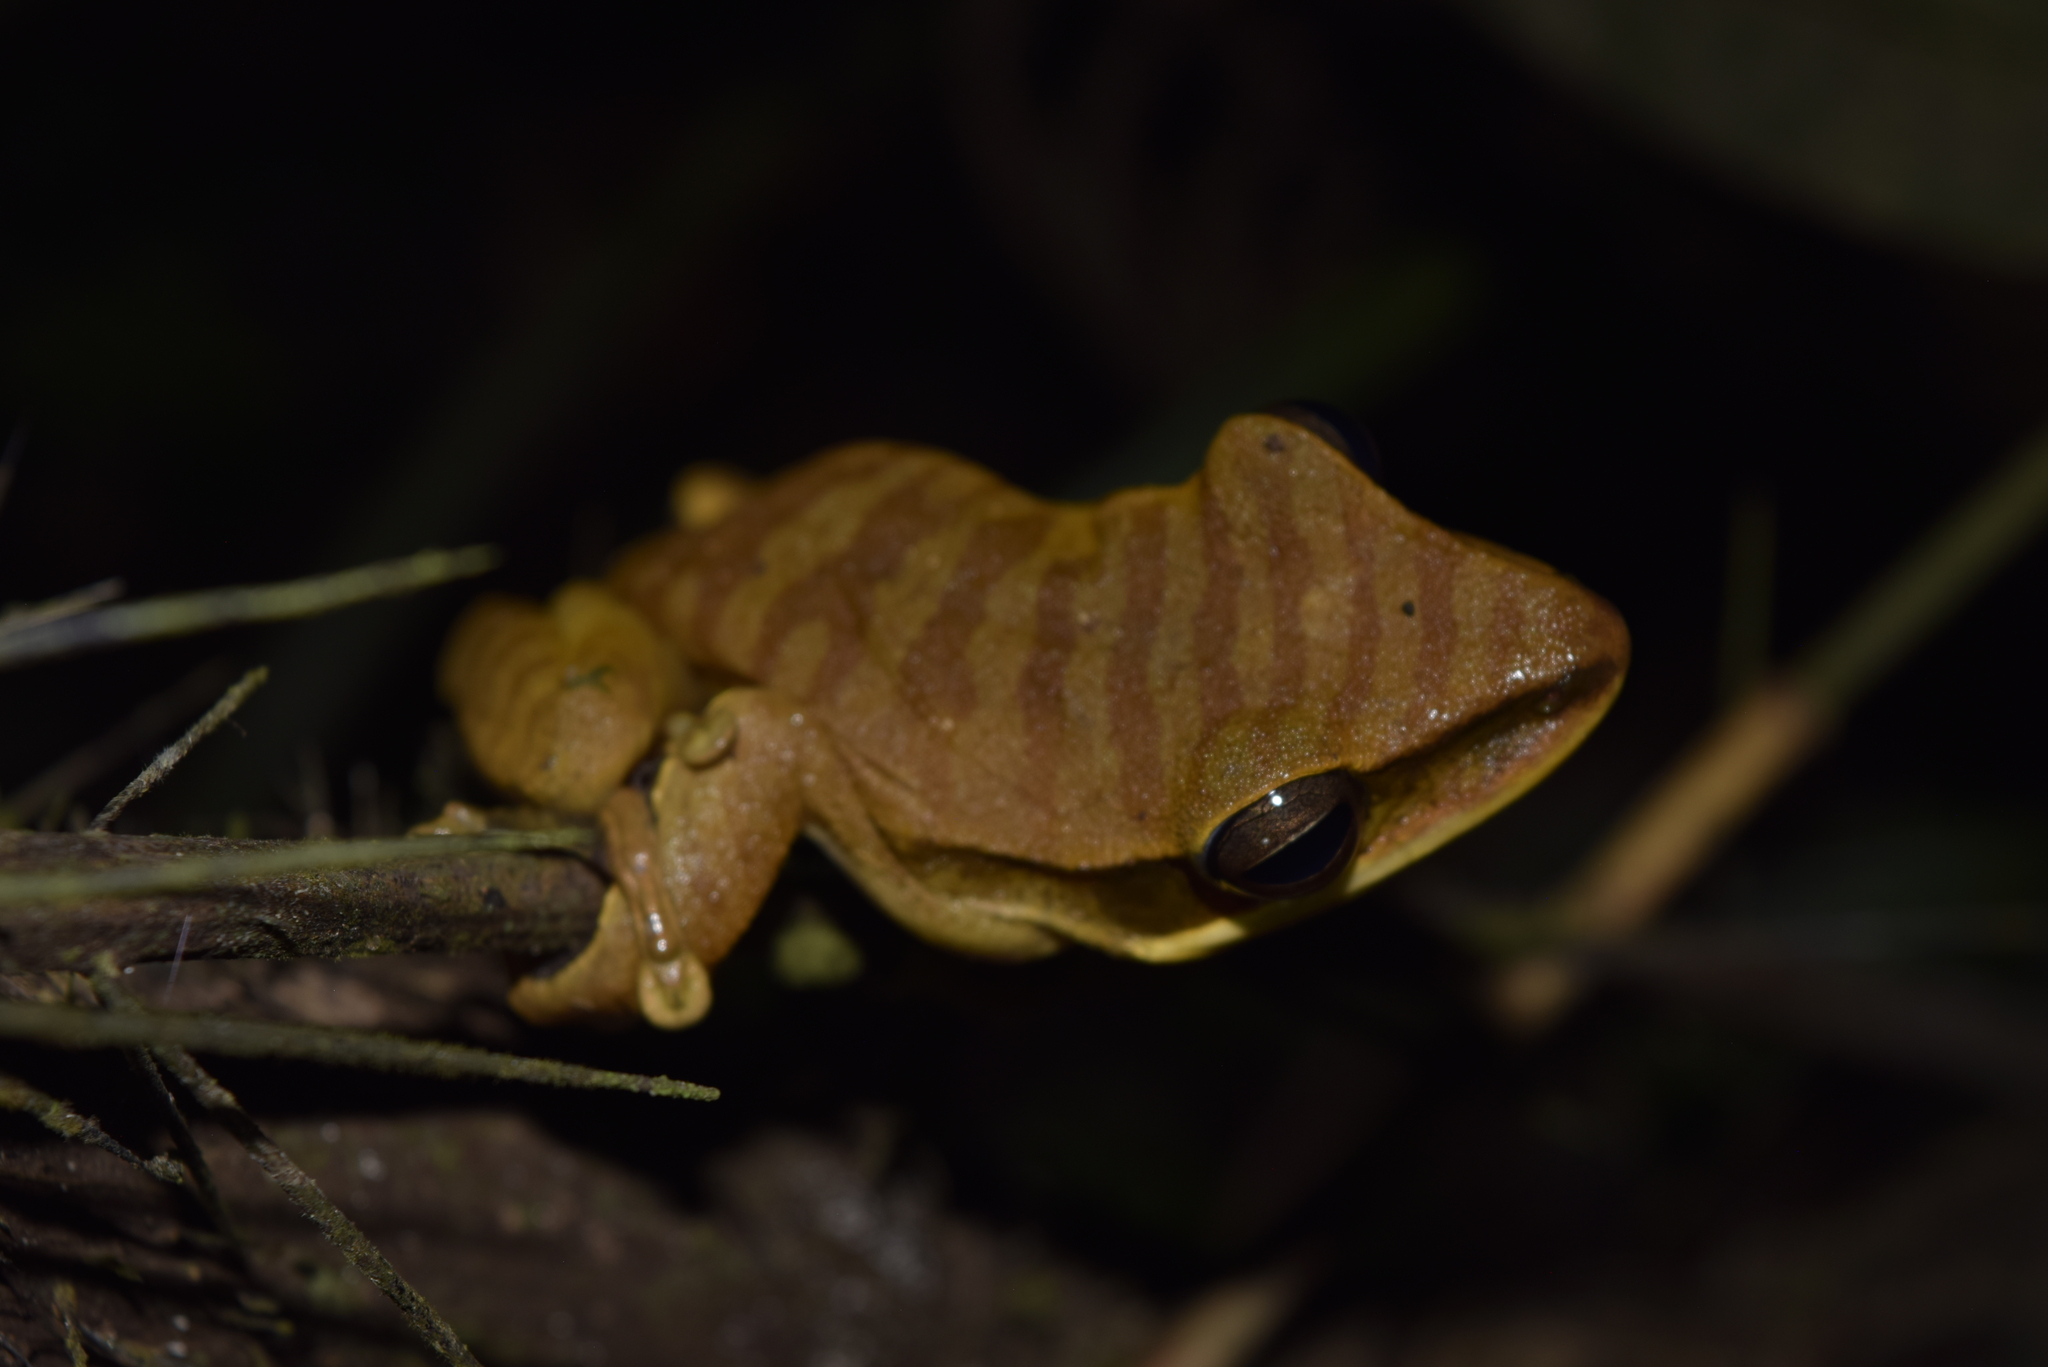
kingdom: Animalia
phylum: Chordata
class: Amphibia
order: Anura
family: Hylidae
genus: Boana
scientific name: Boana lanciformis
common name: Rana lanceolada commún
